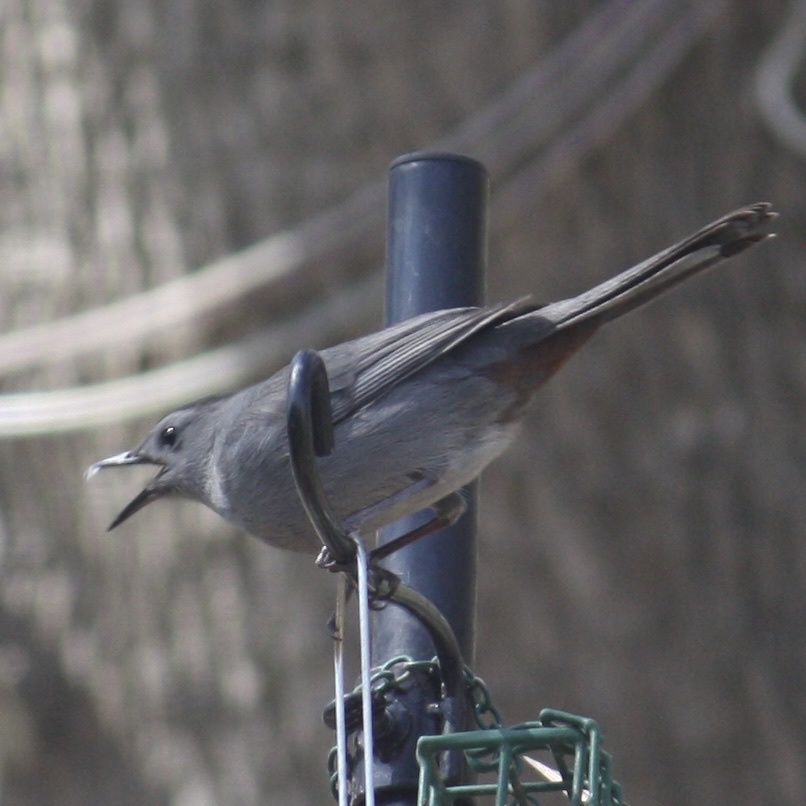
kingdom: Animalia
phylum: Chordata
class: Aves
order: Passeriformes
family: Mimidae
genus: Dumetella
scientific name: Dumetella carolinensis
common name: Gray catbird
